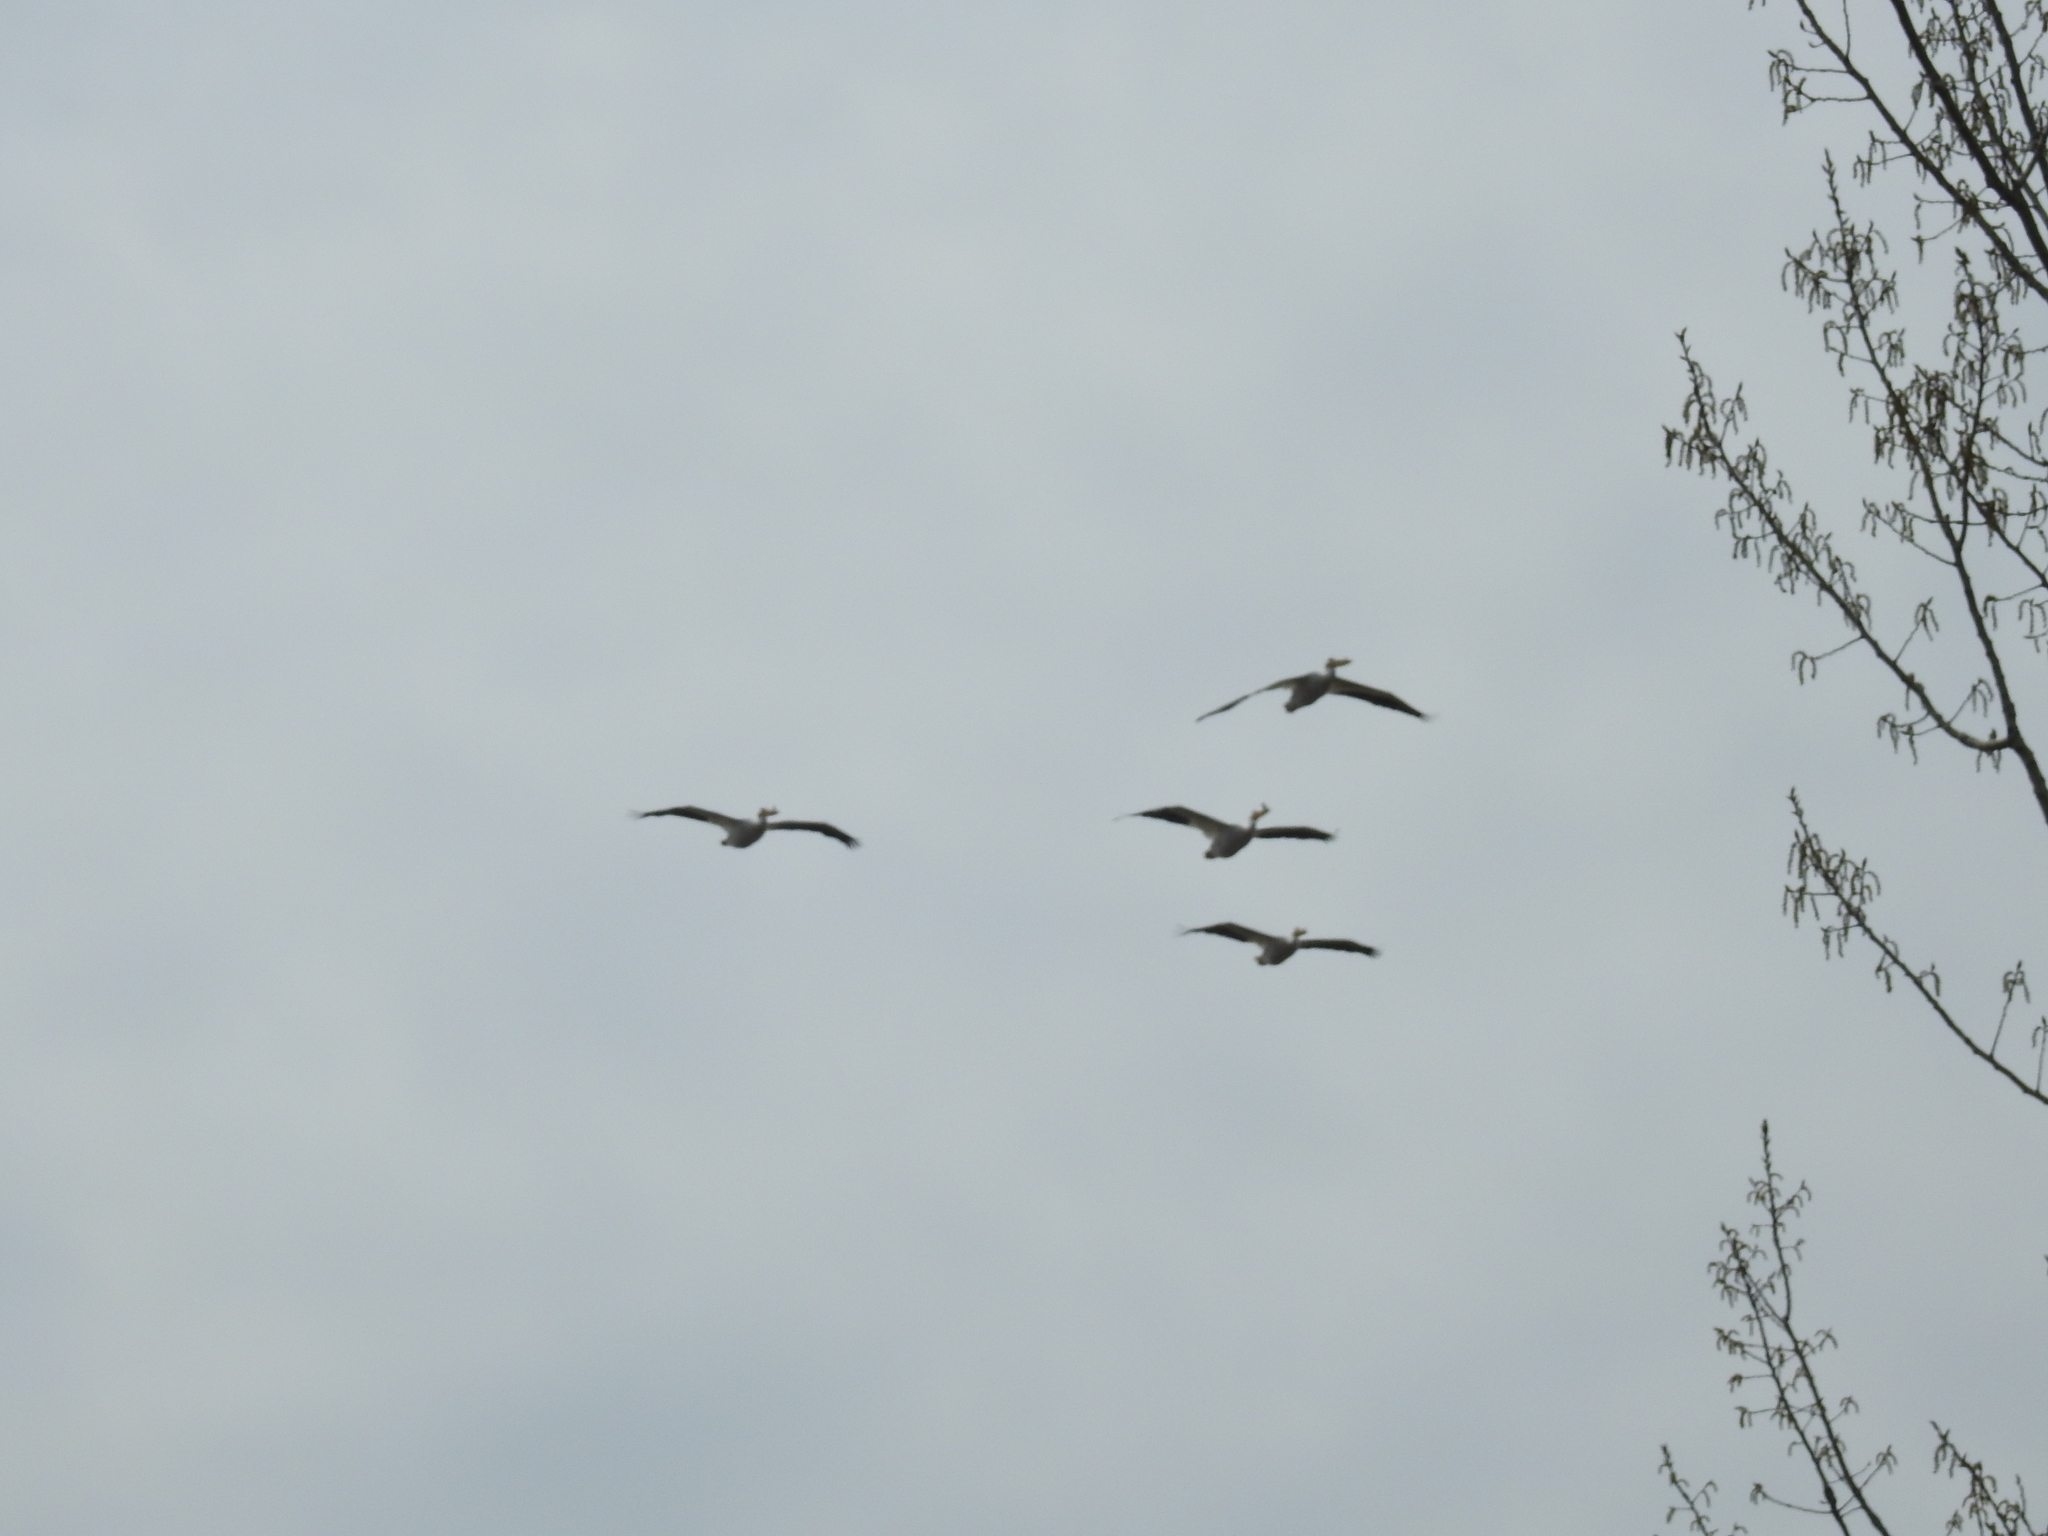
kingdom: Animalia
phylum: Chordata
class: Aves
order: Pelecaniformes
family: Pelecanidae
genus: Pelecanus
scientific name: Pelecanus erythrorhynchos
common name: American white pelican
